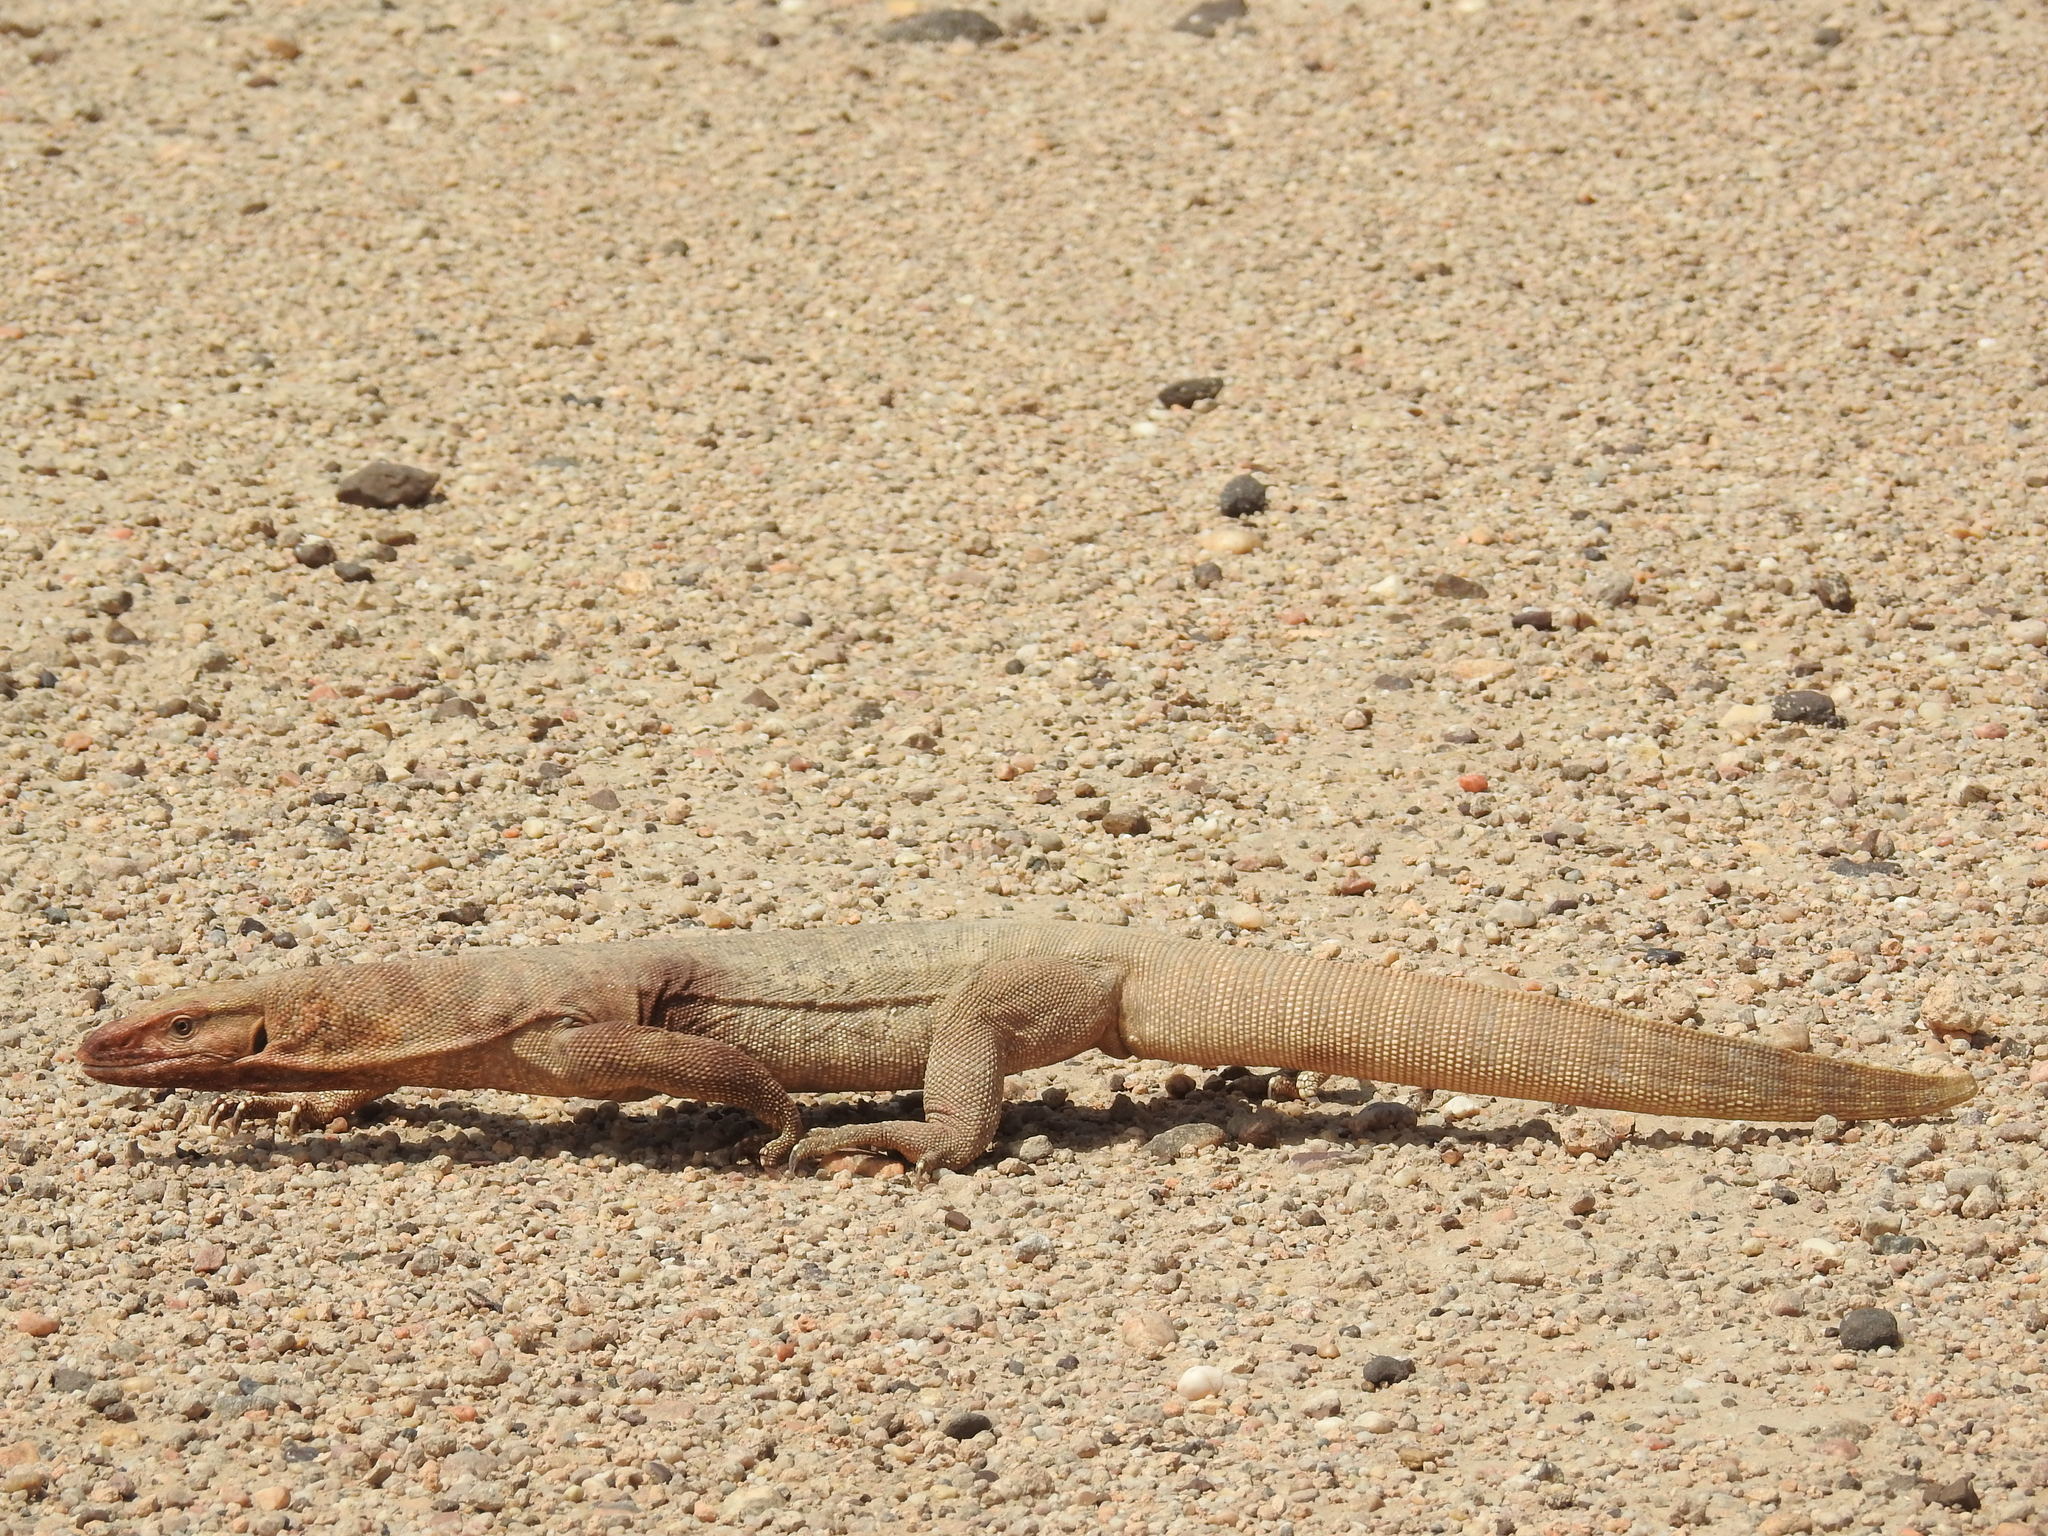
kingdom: Animalia
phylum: Chordata
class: Squamata
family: Varanidae
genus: Varanus
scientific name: Varanus bengalensis
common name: Bengal monitor
